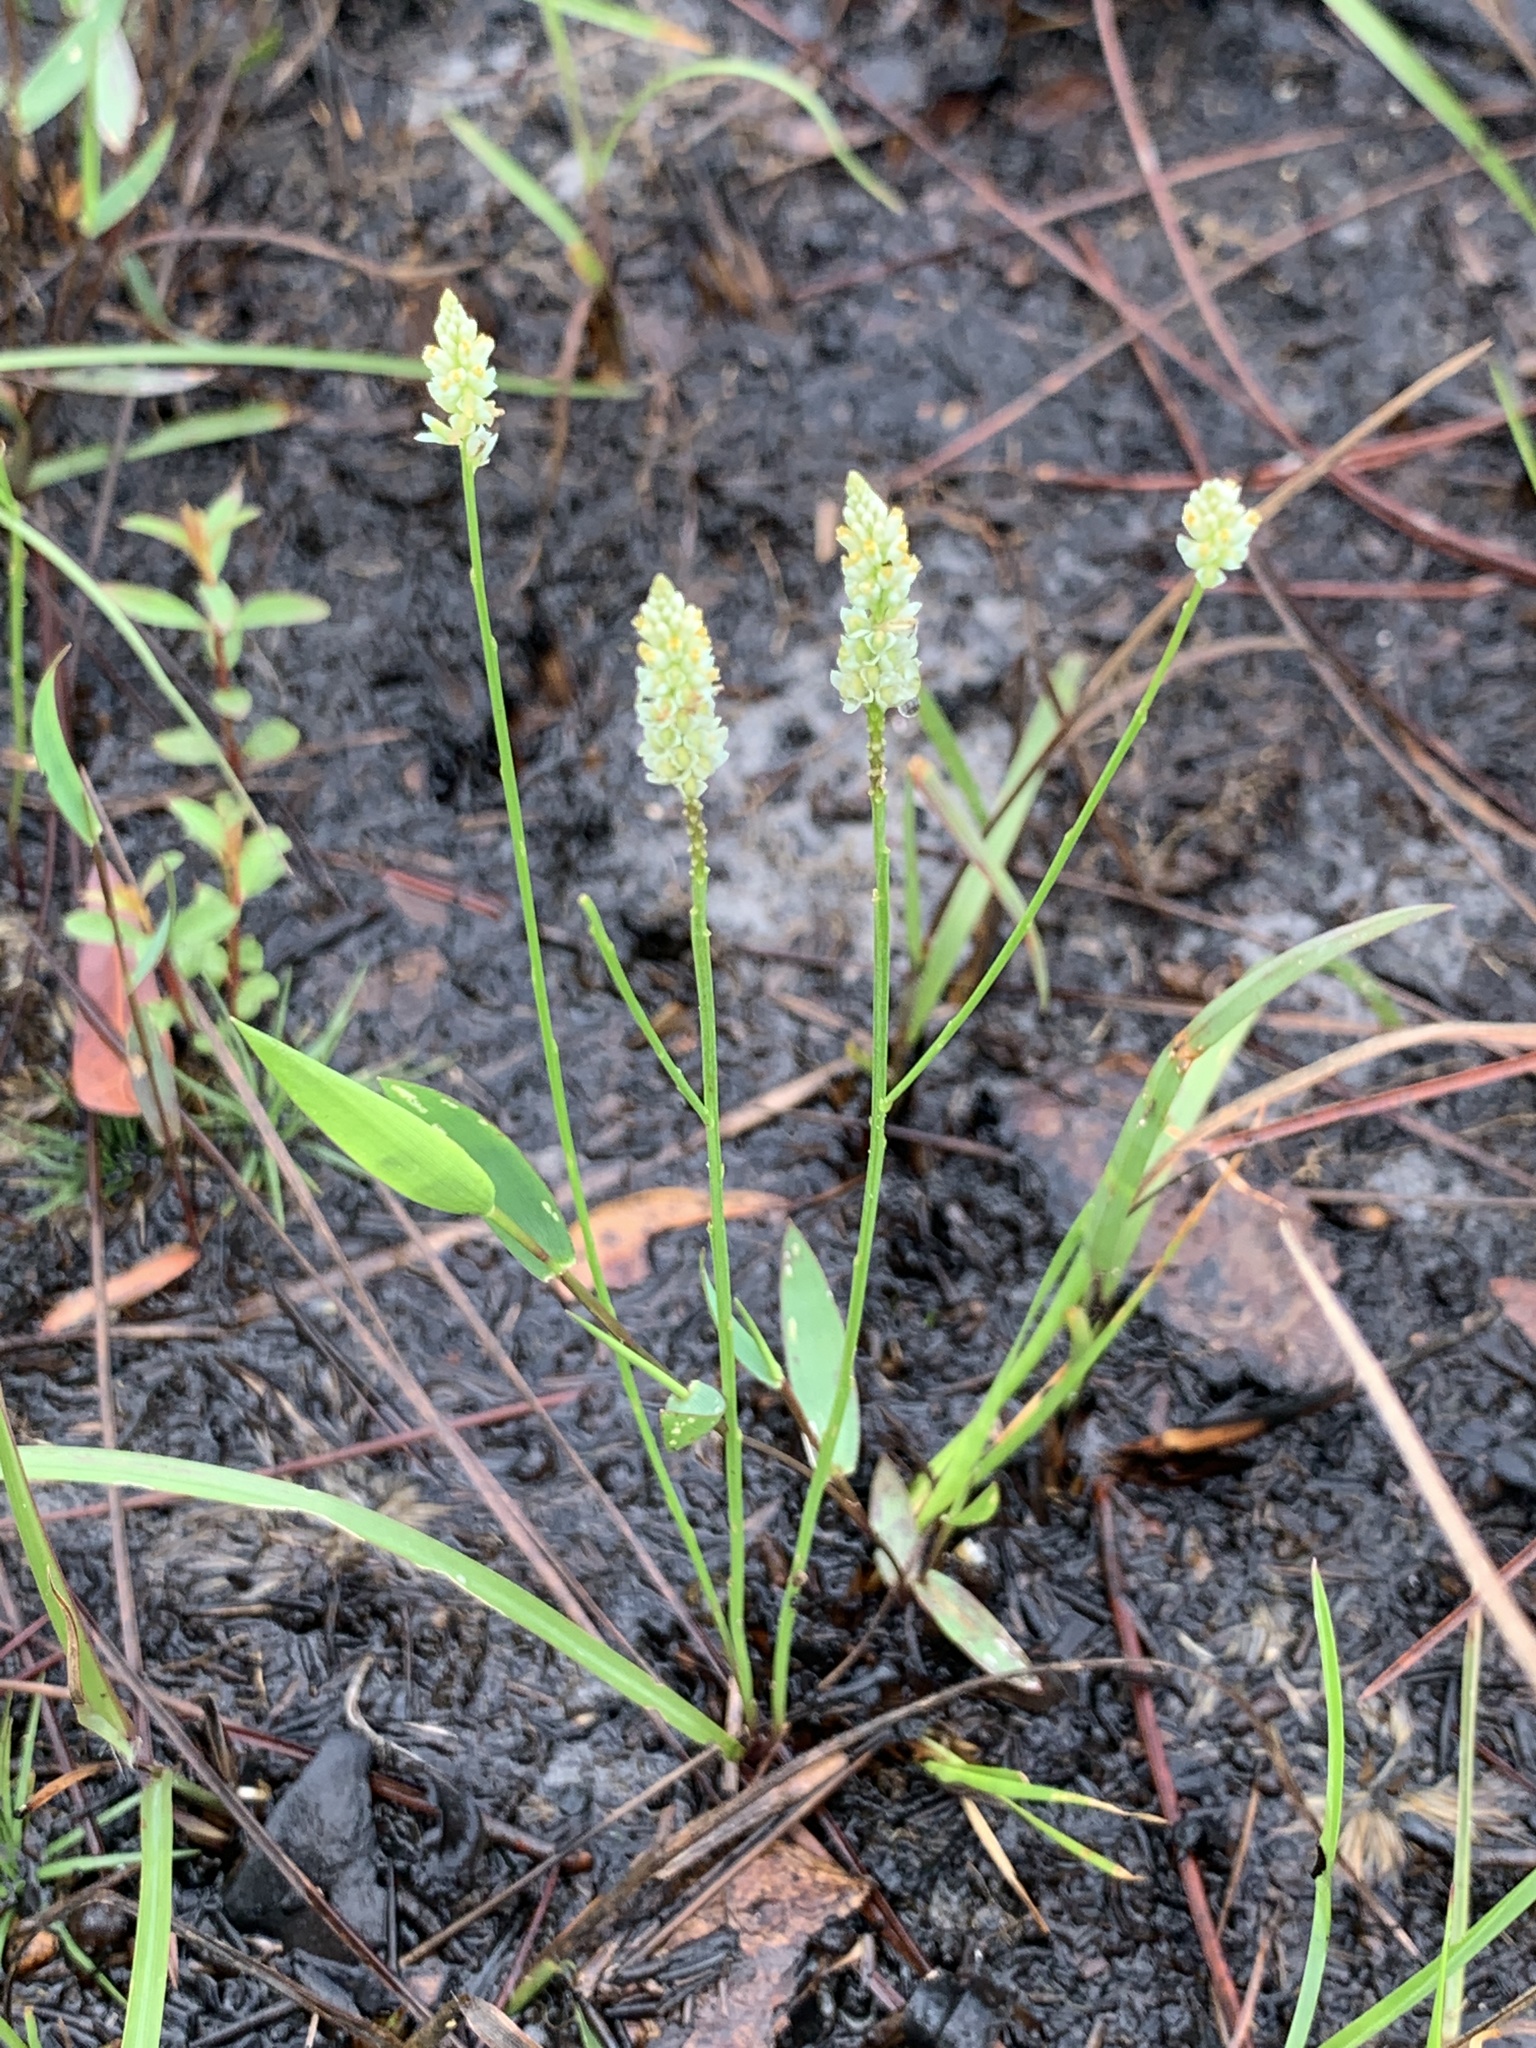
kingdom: Plantae
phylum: Tracheophyta
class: Magnoliopsida
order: Fabales
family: Polygalaceae
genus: Polygala
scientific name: Polygala setacea
